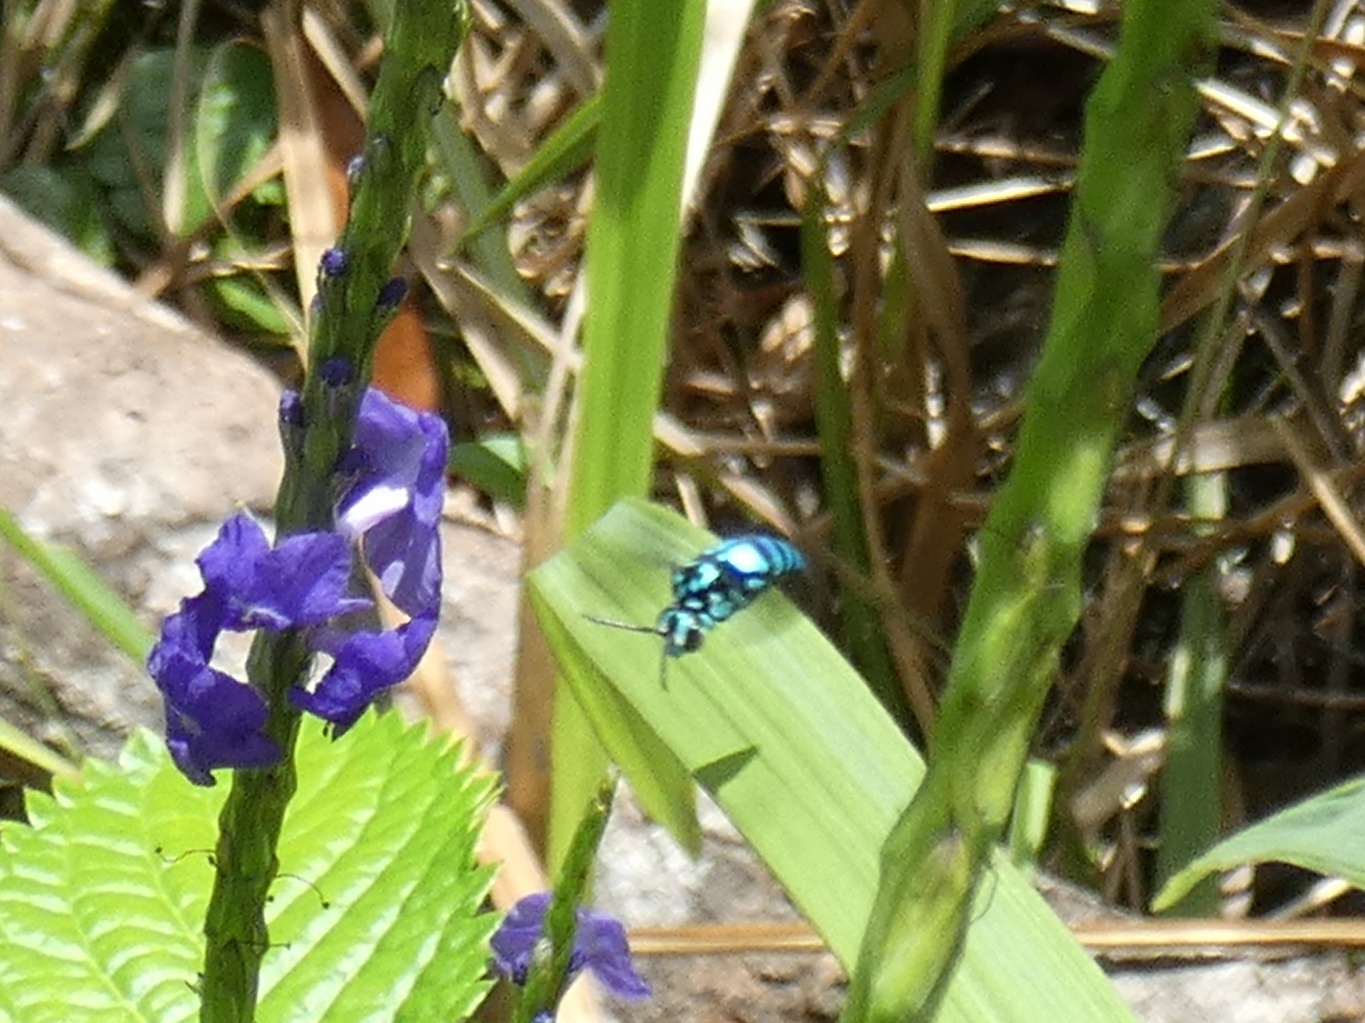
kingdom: Animalia
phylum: Arthropoda
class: Insecta
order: Hymenoptera
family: Apidae
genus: Thyreus
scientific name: Thyreus wallacei
